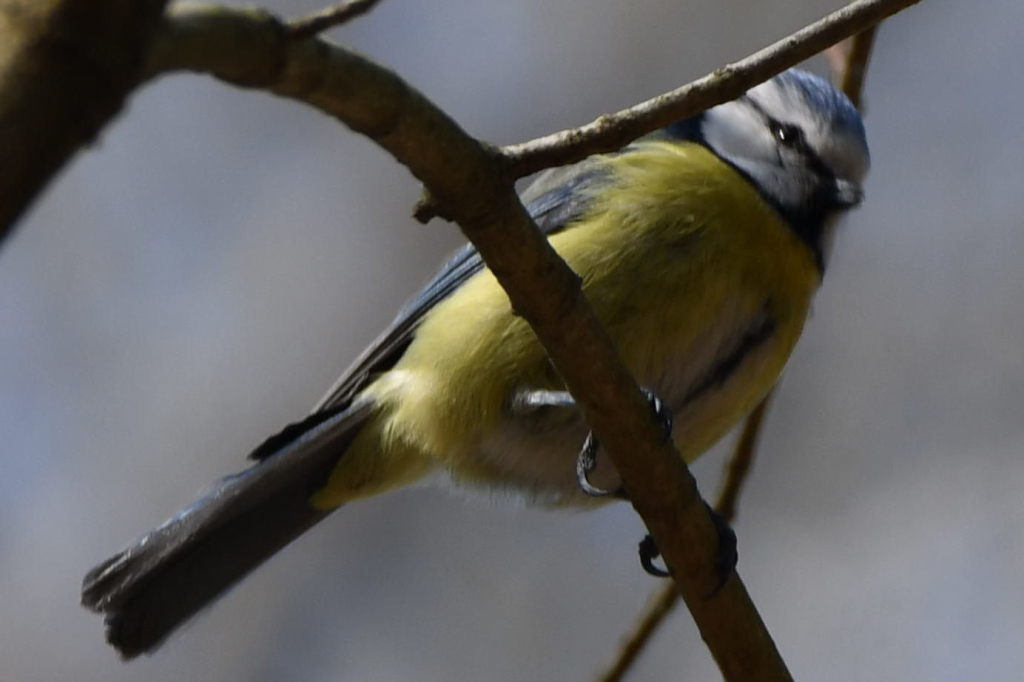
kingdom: Animalia
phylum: Chordata
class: Aves
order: Passeriformes
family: Paridae
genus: Cyanistes
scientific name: Cyanistes caeruleus
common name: Eurasian blue tit
